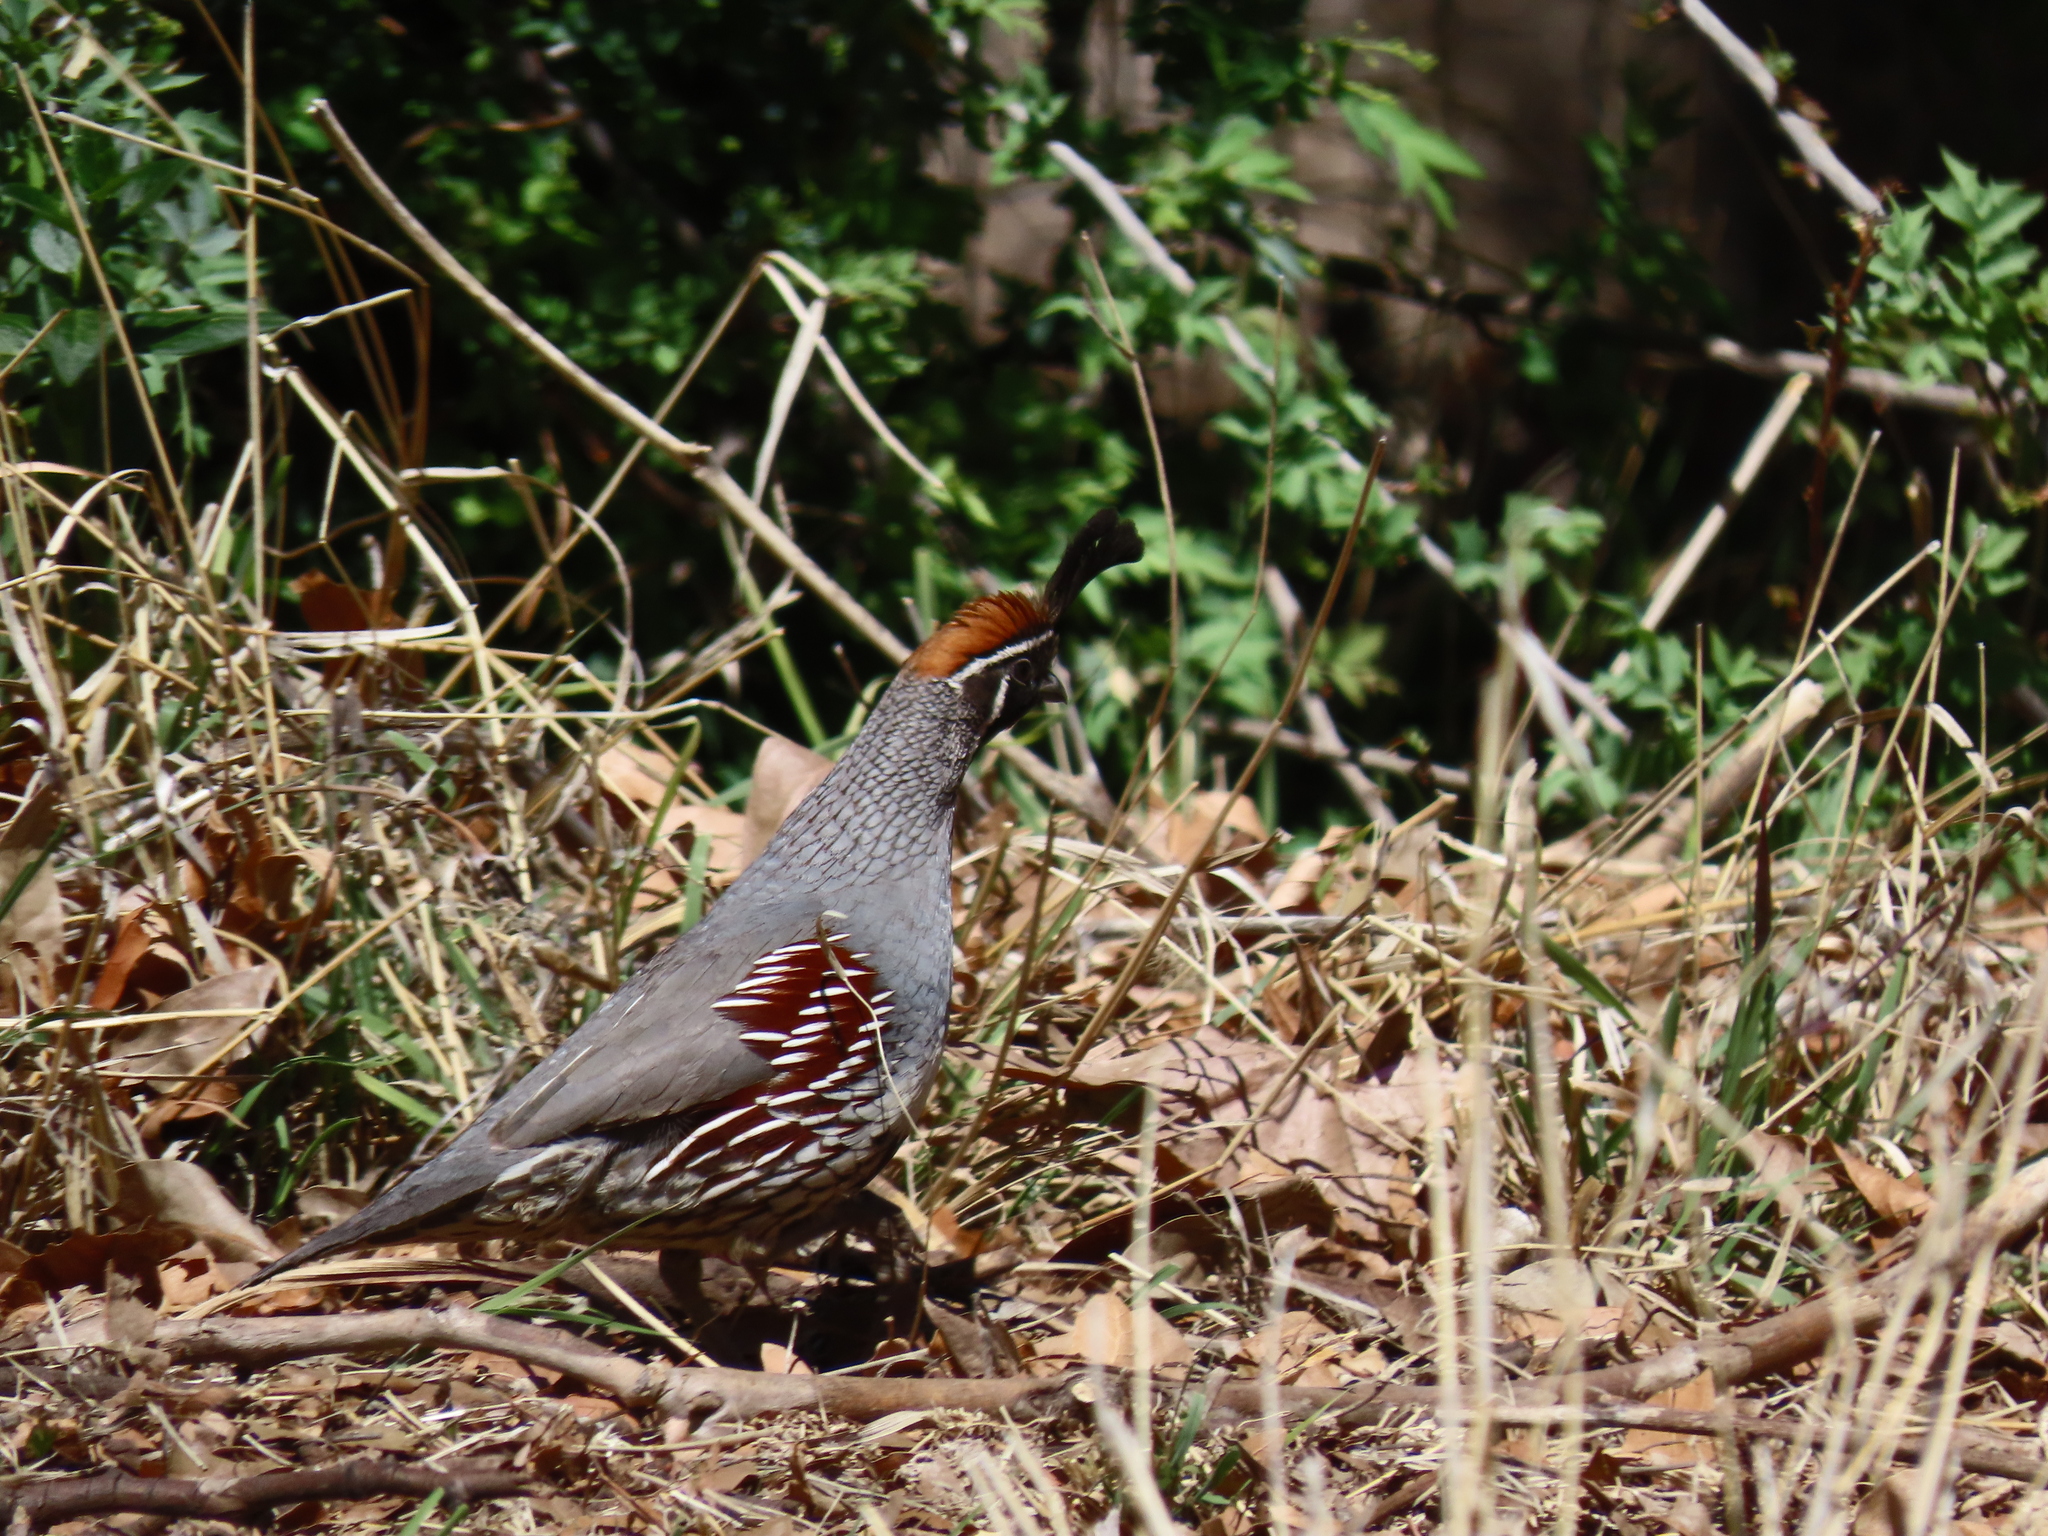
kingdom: Animalia
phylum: Chordata
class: Aves
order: Galliformes
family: Odontophoridae
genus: Callipepla
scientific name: Callipepla gambelii
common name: Gambel's quail
